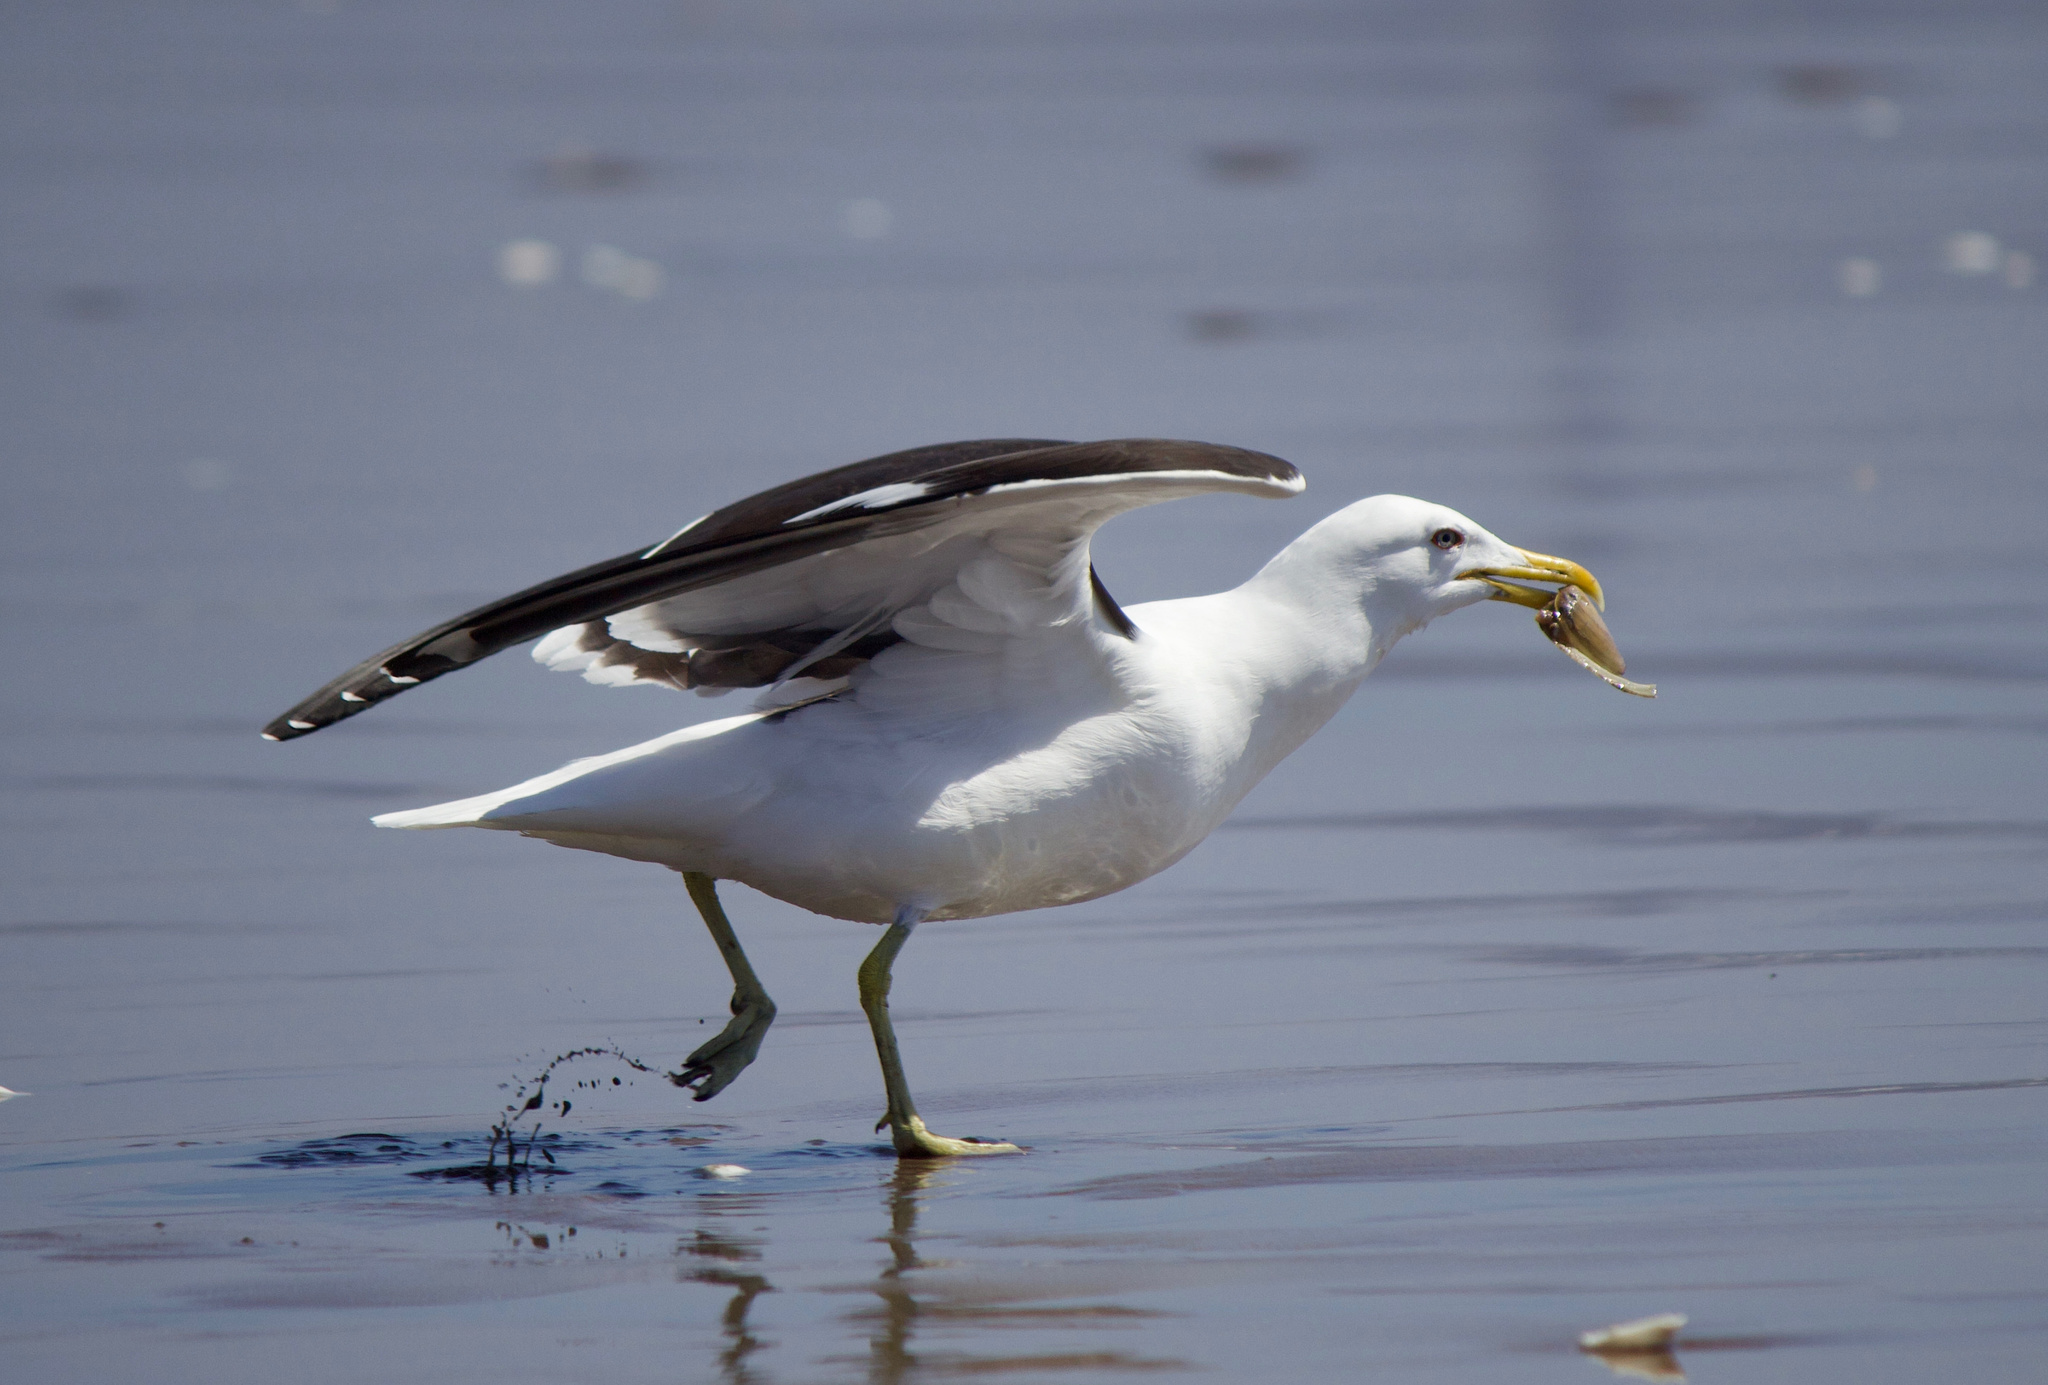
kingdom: Animalia
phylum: Chordata
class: Aves
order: Charadriiformes
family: Laridae
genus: Larus
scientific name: Larus dominicanus
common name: Kelp gull
